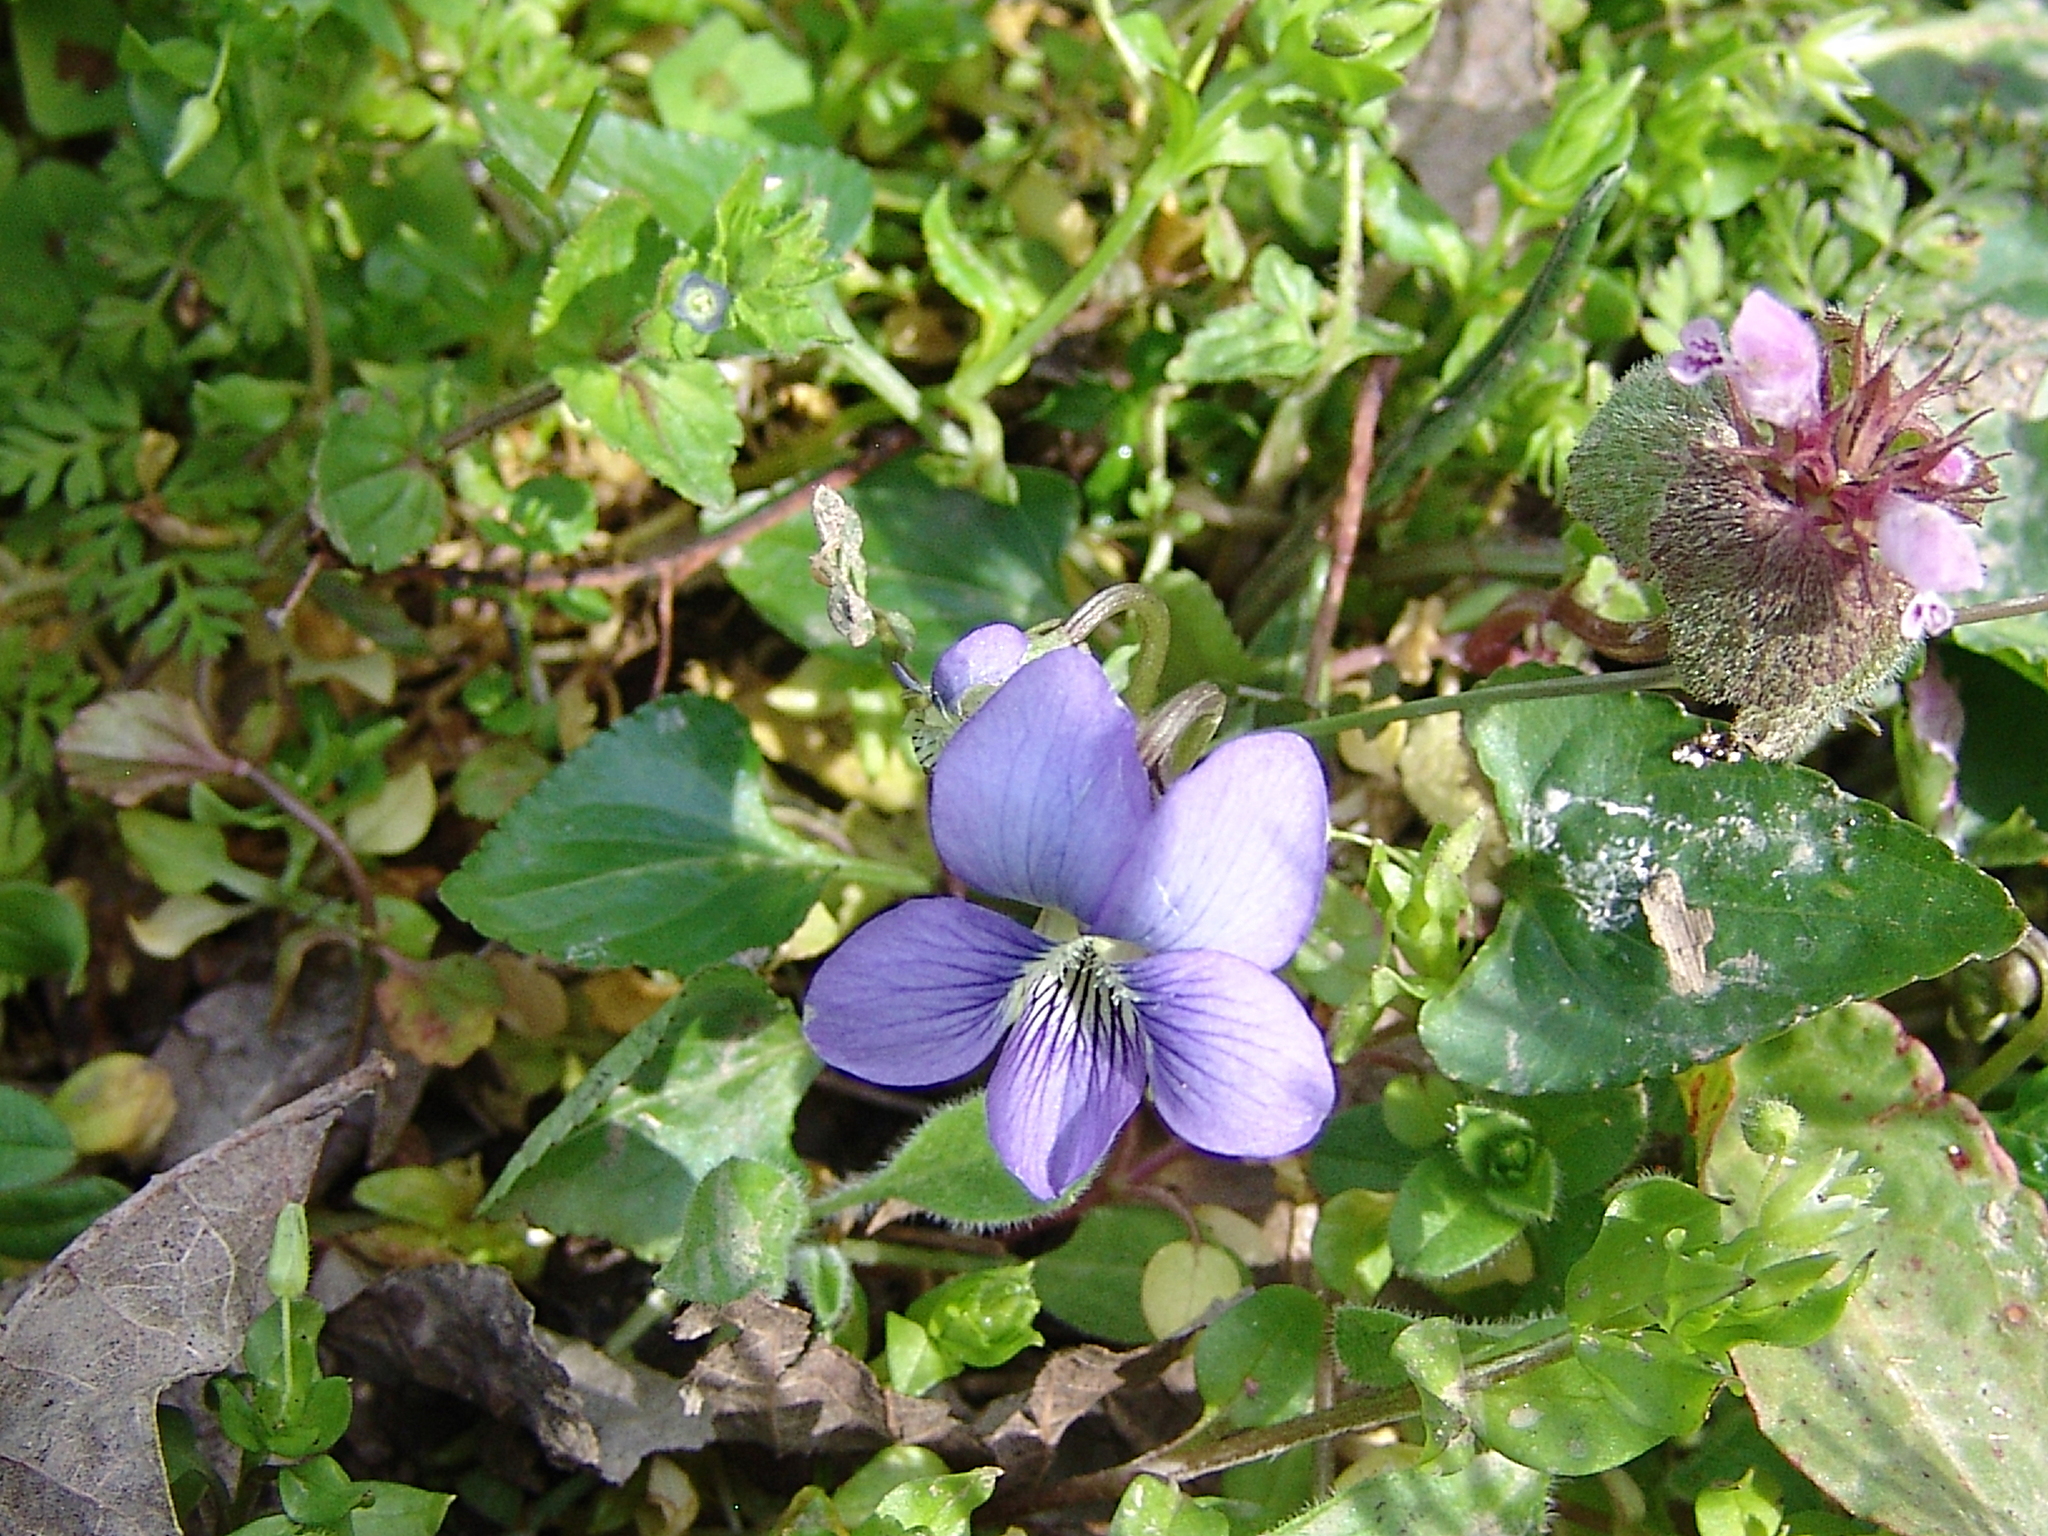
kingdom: Plantae
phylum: Tracheophyta
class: Magnoliopsida
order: Malpighiales
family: Violaceae
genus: Viola
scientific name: Viola sororia
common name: Dooryard violet
